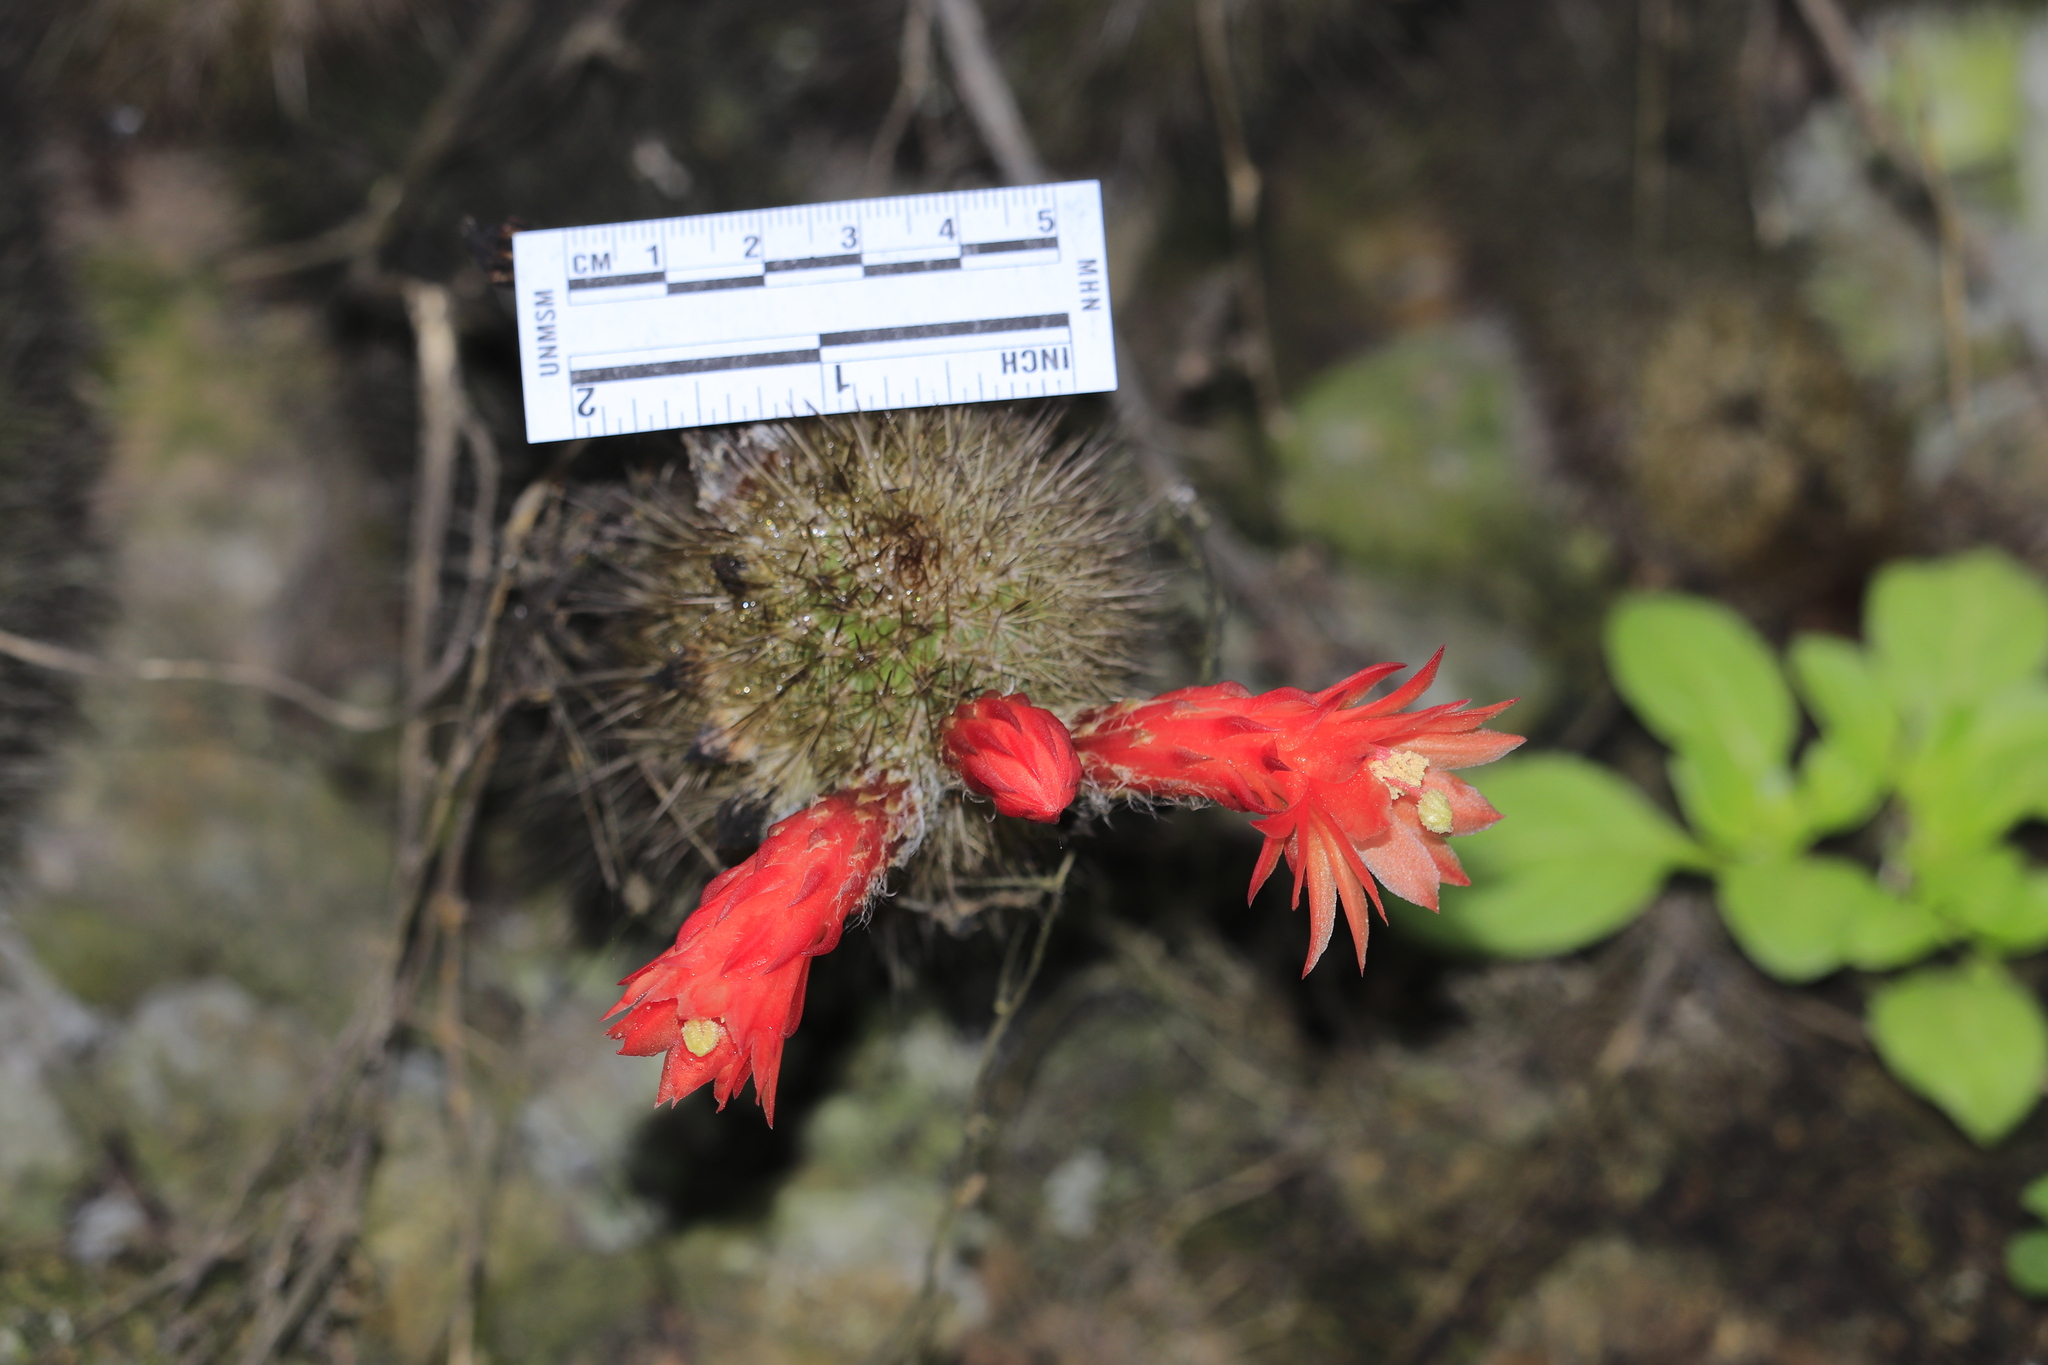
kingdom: Plantae
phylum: Tracheophyta
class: Magnoliopsida
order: Caryophyllales
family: Cactaceae
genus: Borzicactus
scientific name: Borzicactus acanthurus
